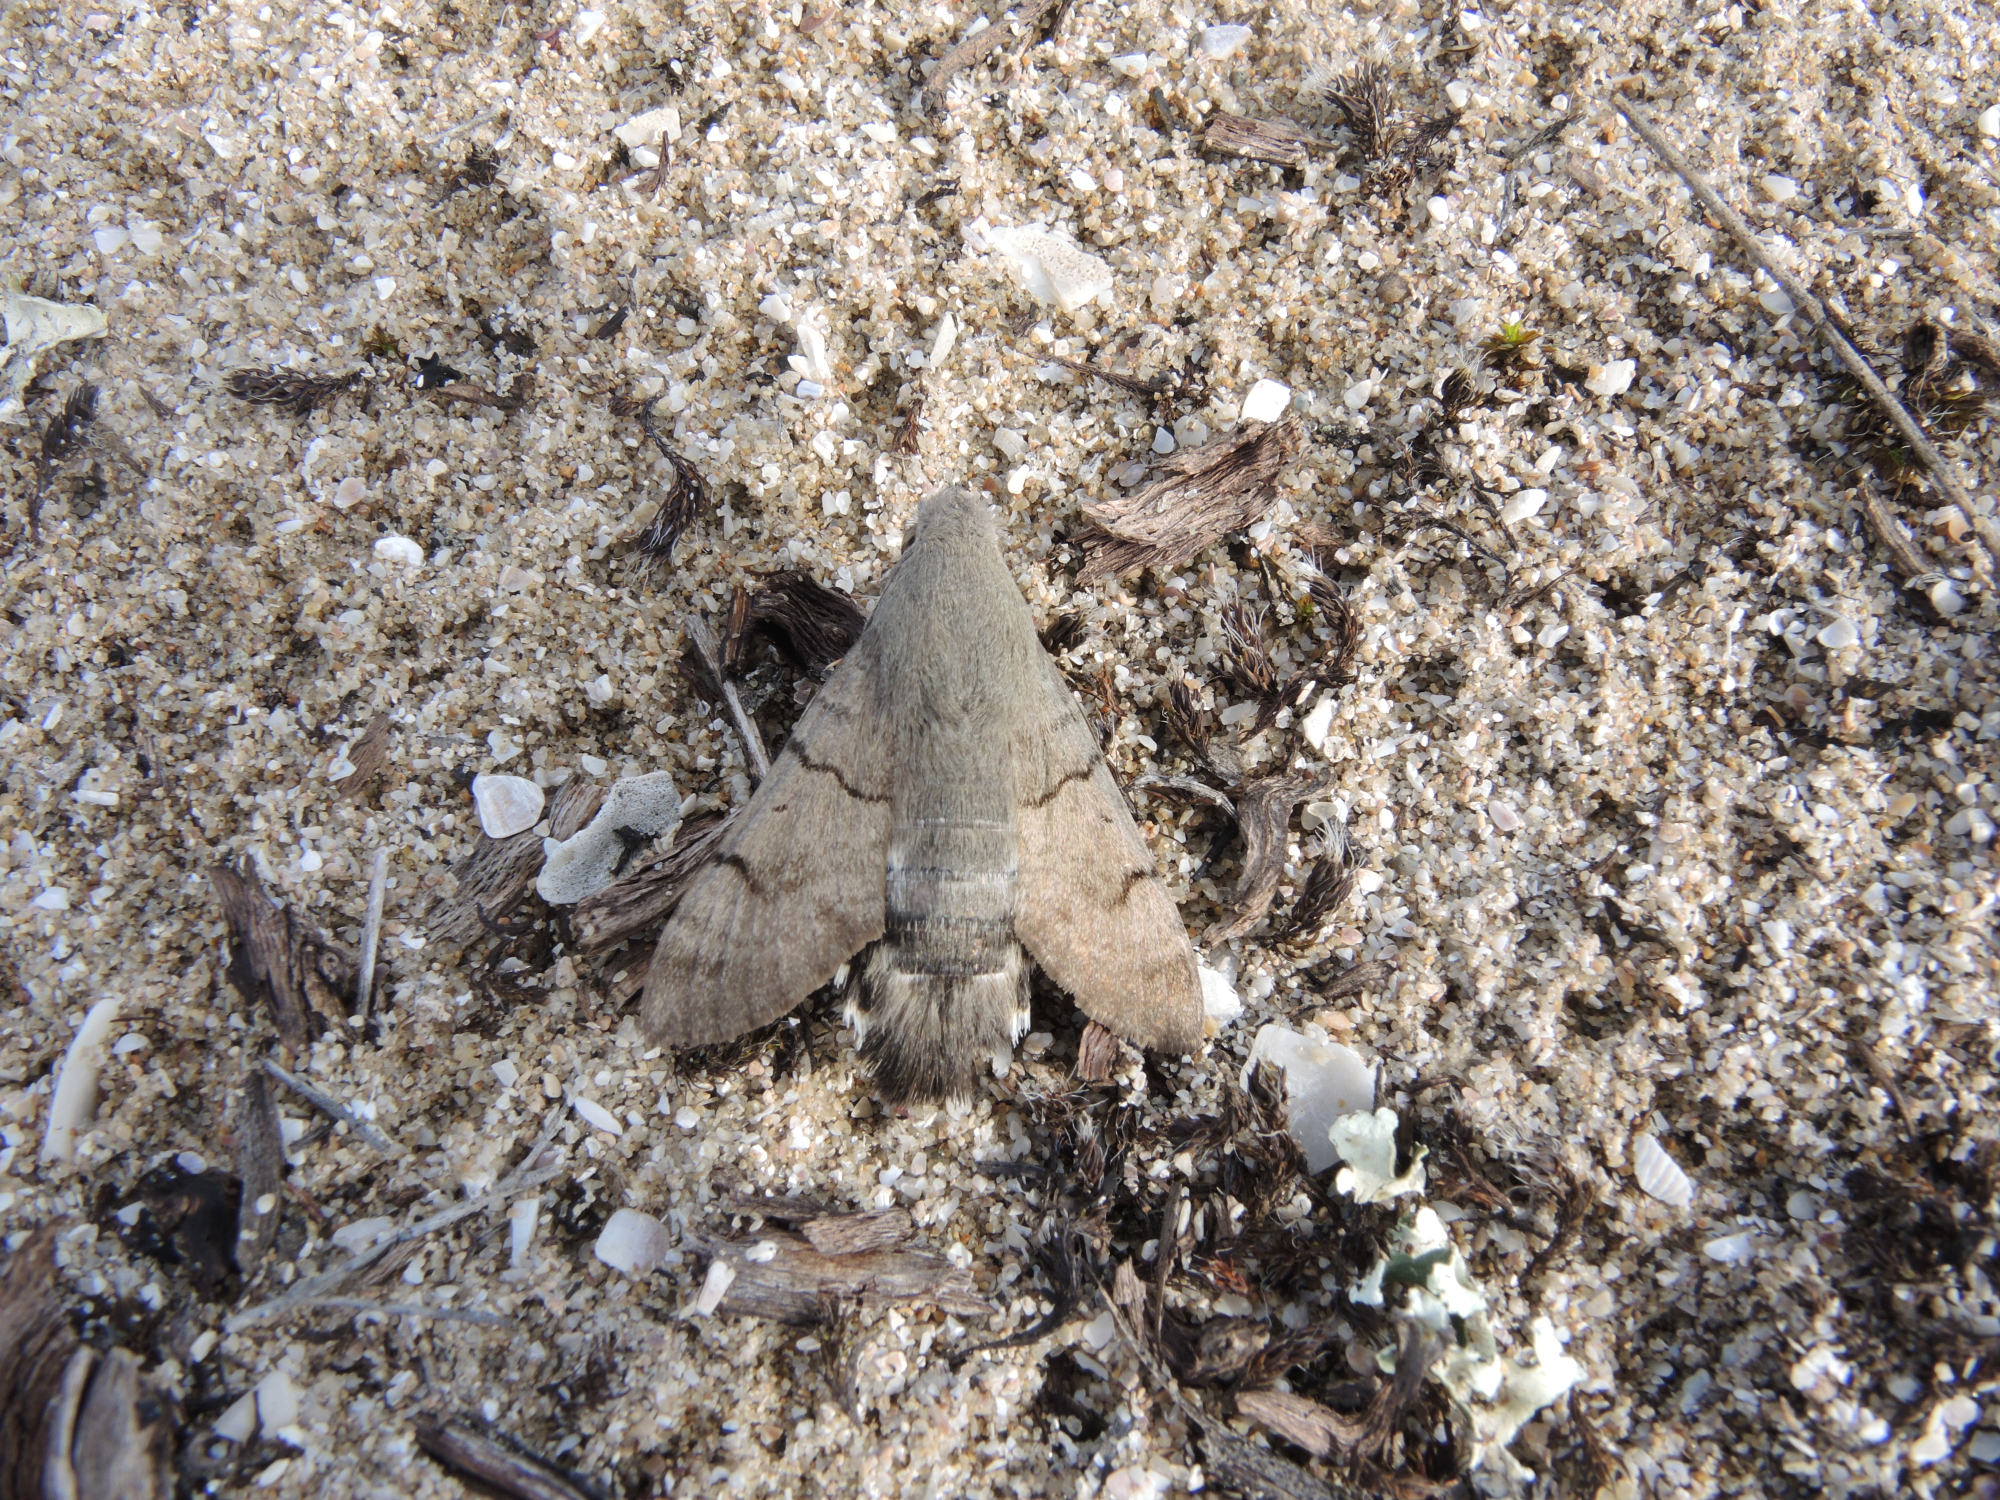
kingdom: Animalia
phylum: Arthropoda
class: Insecta
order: Lepidoptera
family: Sphingidae
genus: Macroglossum
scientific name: Macroglossum stellatarum
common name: Humming-bird hawk-moth
